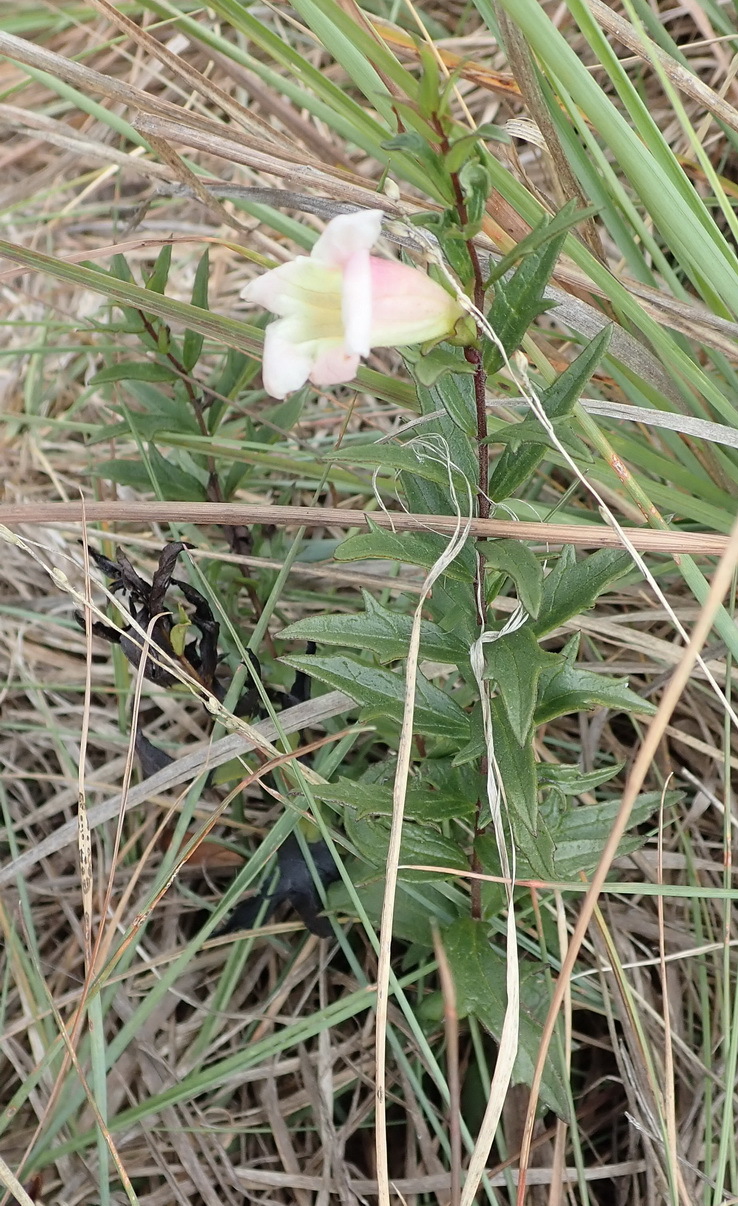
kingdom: Plantae
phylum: Tracheophyta
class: Magnoliopsida
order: Lamiales
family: Orobanchaceae
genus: Graderia
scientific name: Graderia scabra
